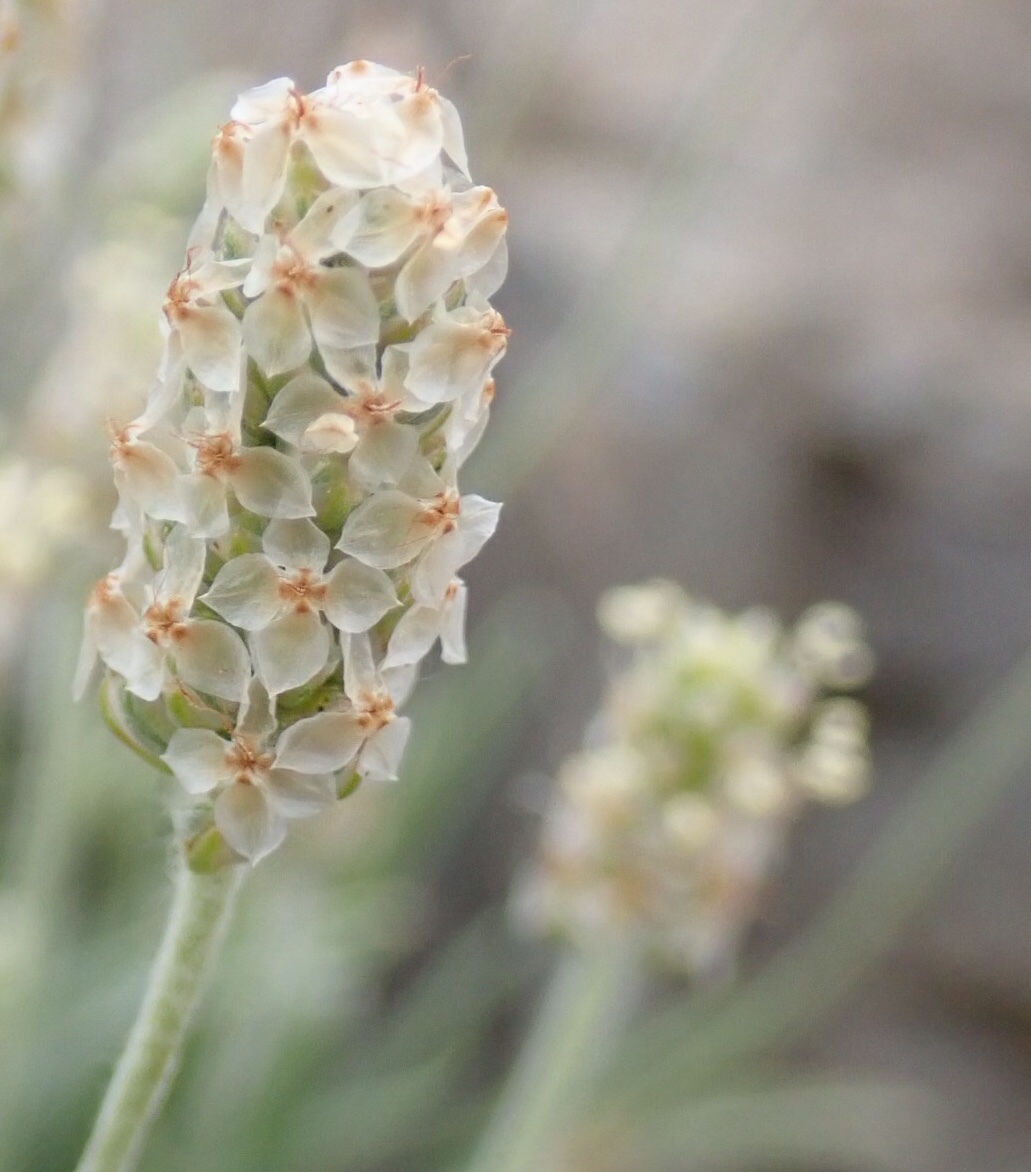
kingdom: Plantae
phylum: Tracheophyta
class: Magnoliopsida
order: Lamiales
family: Plantaginaceae
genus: Plantago
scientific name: Plantago ovata
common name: Blond plantain
